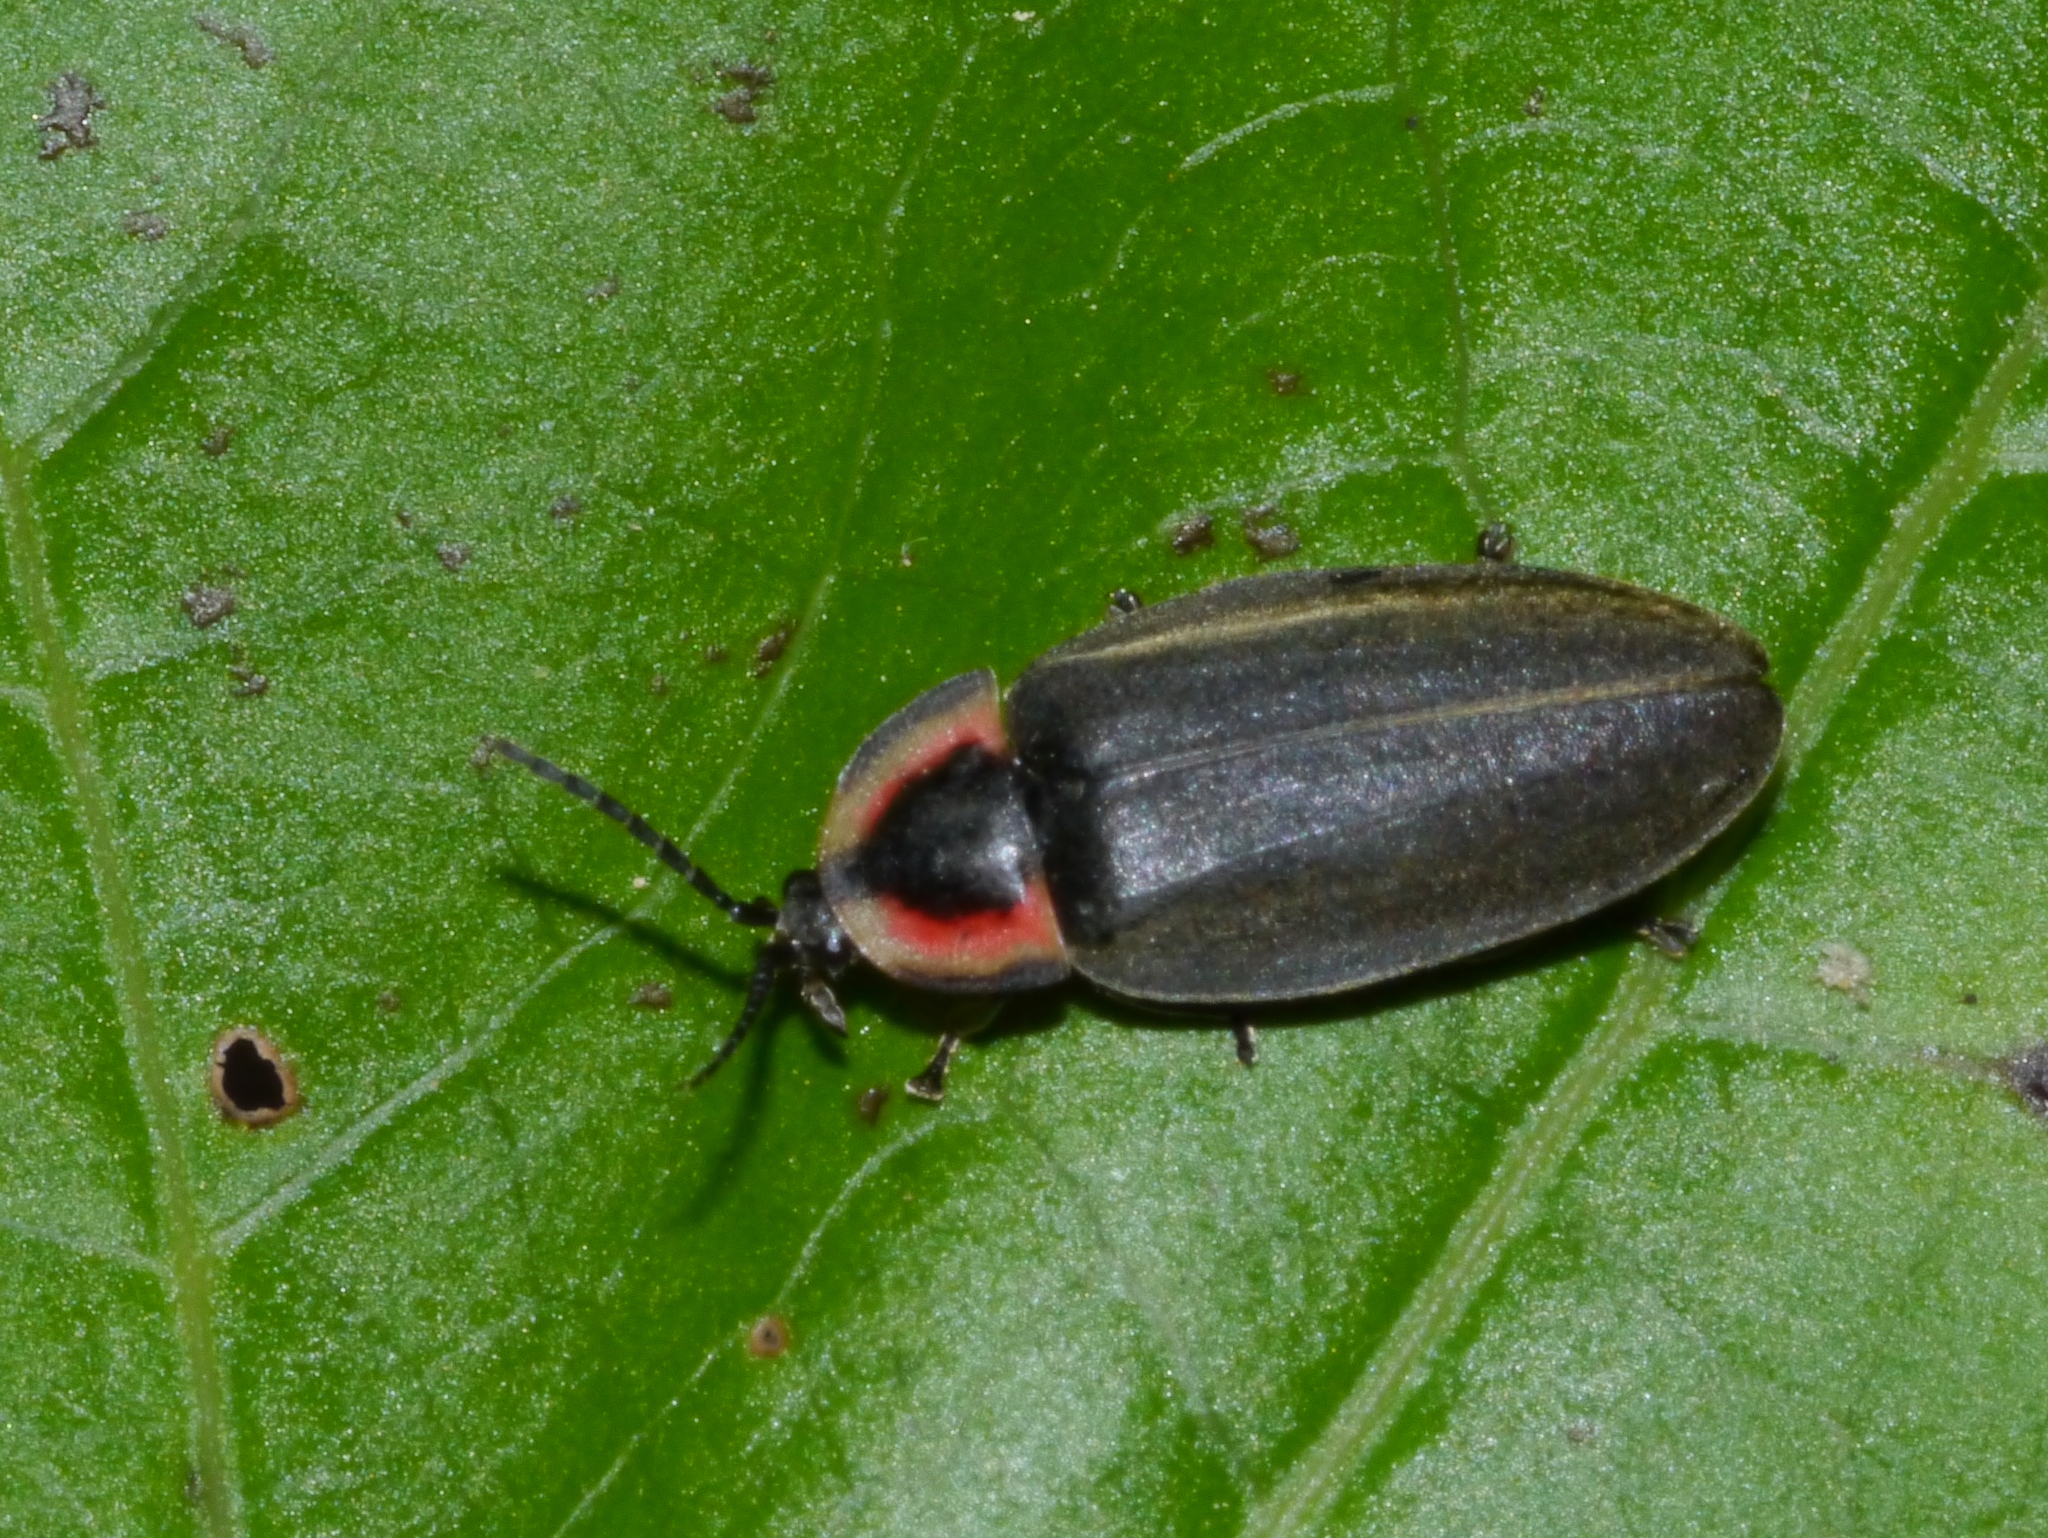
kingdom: Animalia
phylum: Arthropoda
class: Insecta
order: Coleoptera
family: Lampyridae
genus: Photinus
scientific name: Photinus corrusca
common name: Winter firefly
